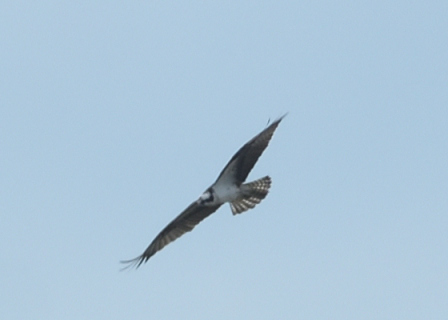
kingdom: Animalia
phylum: Chordata
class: Aves
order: Accipitriformes
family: Pandionidae
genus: Pandion
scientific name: Pandion haliaetus
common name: Osprey
